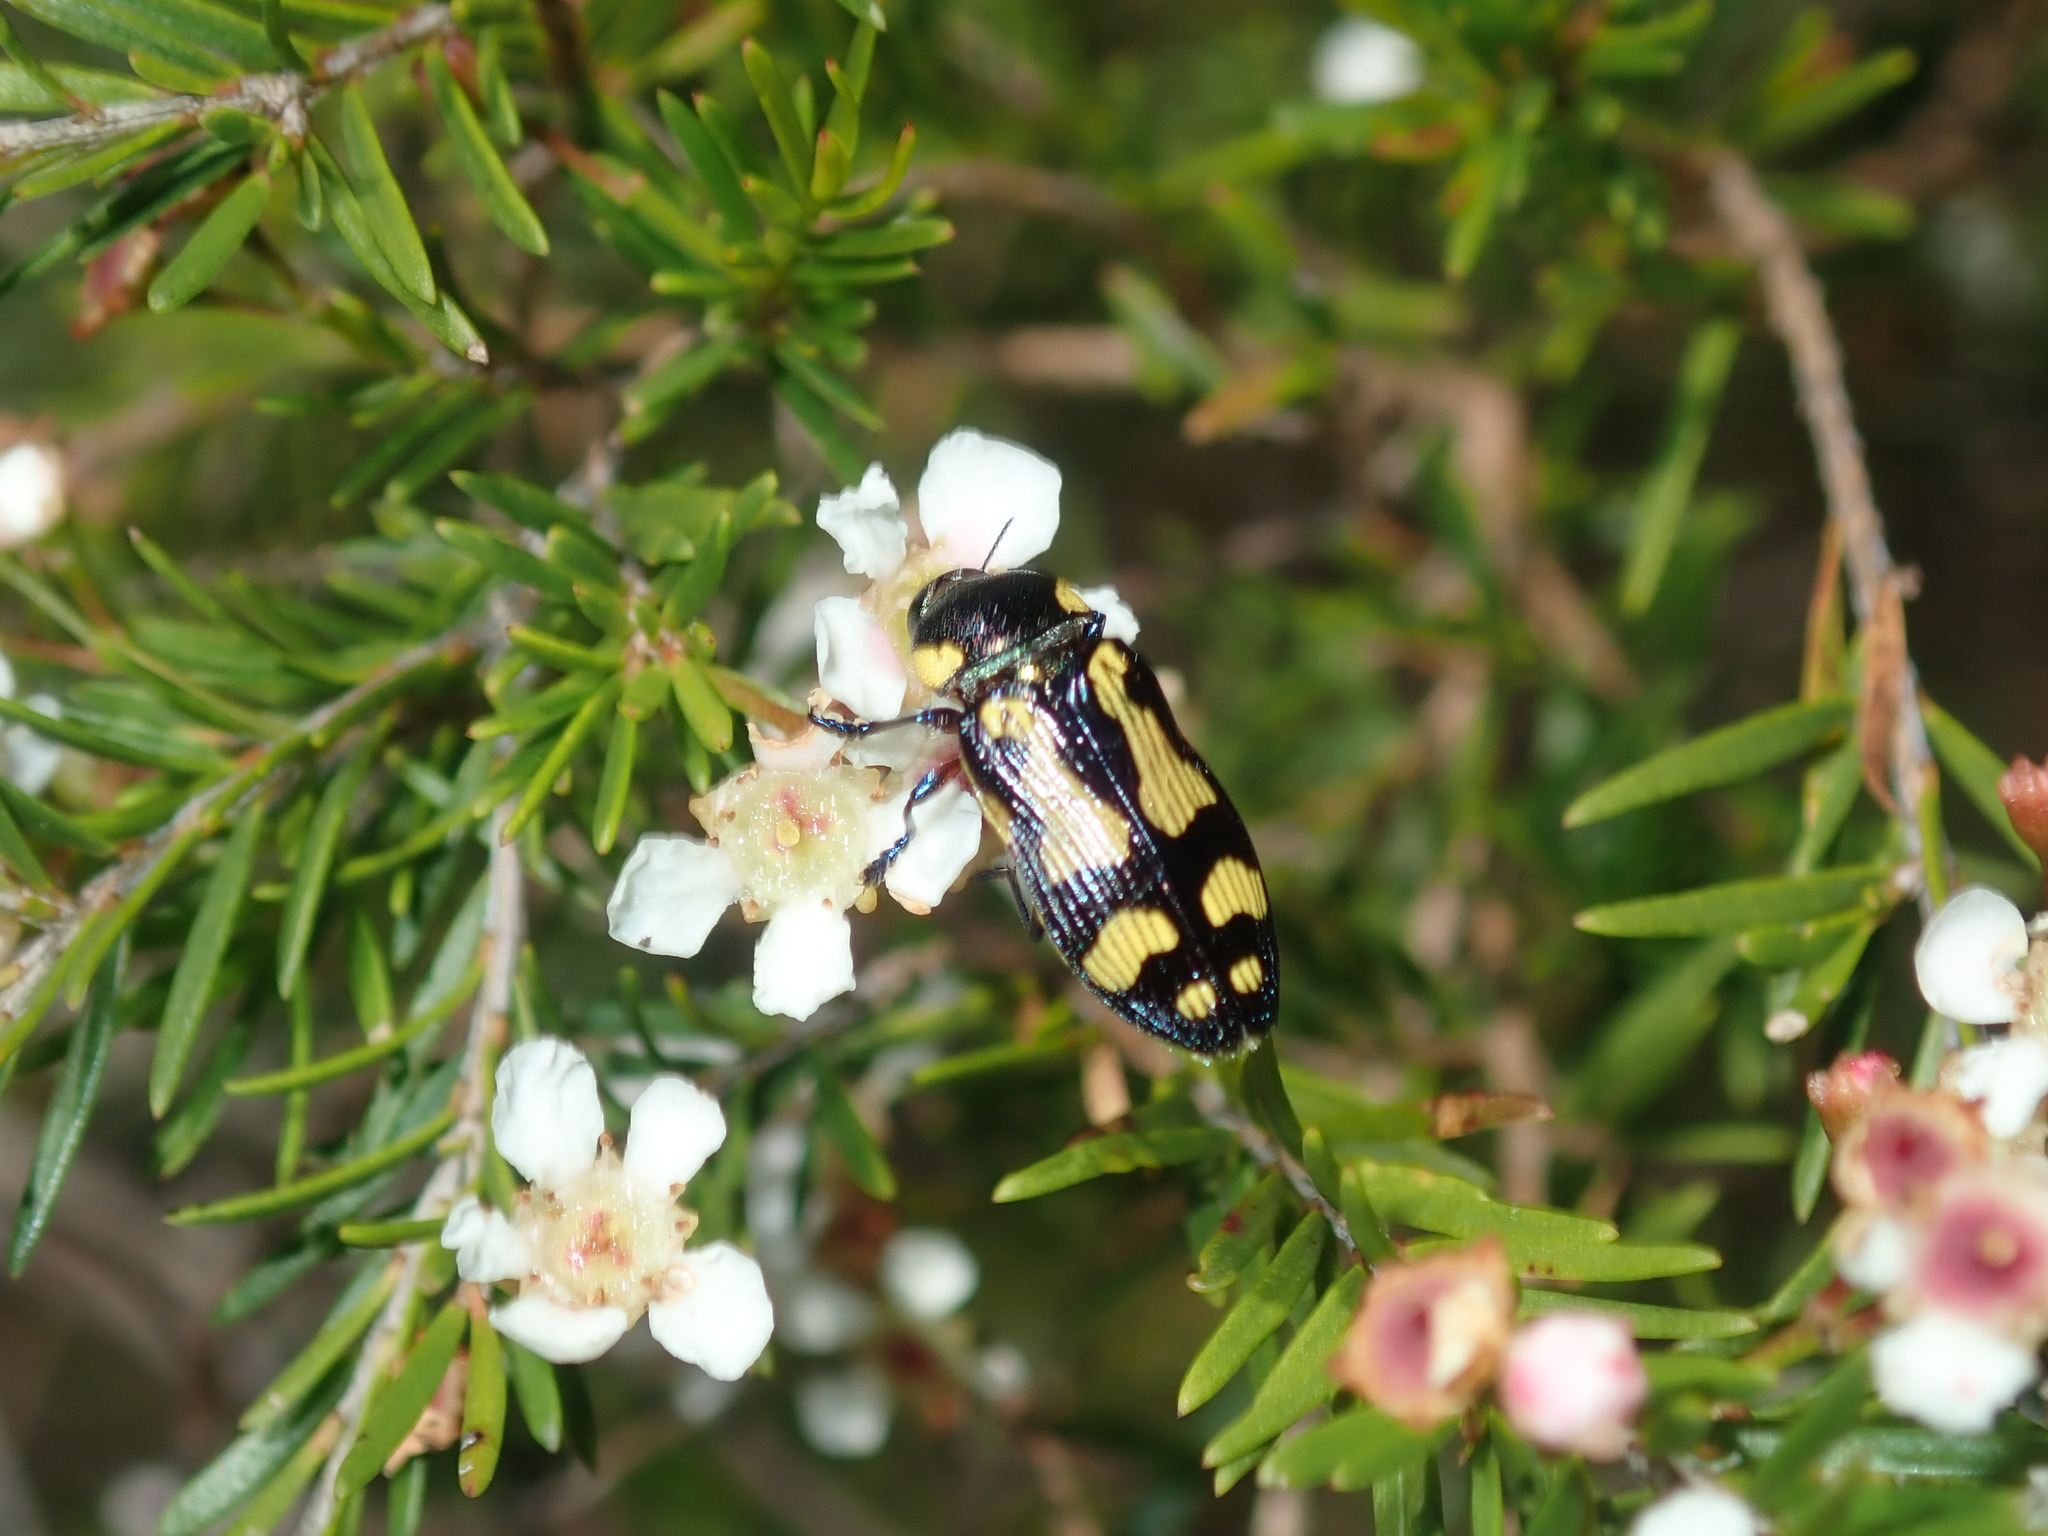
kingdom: Animalia
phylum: Arthropoda
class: Insecta
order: Coleoptera
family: Buprestidae
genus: Castiarina
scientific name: Castiarina octospilota
